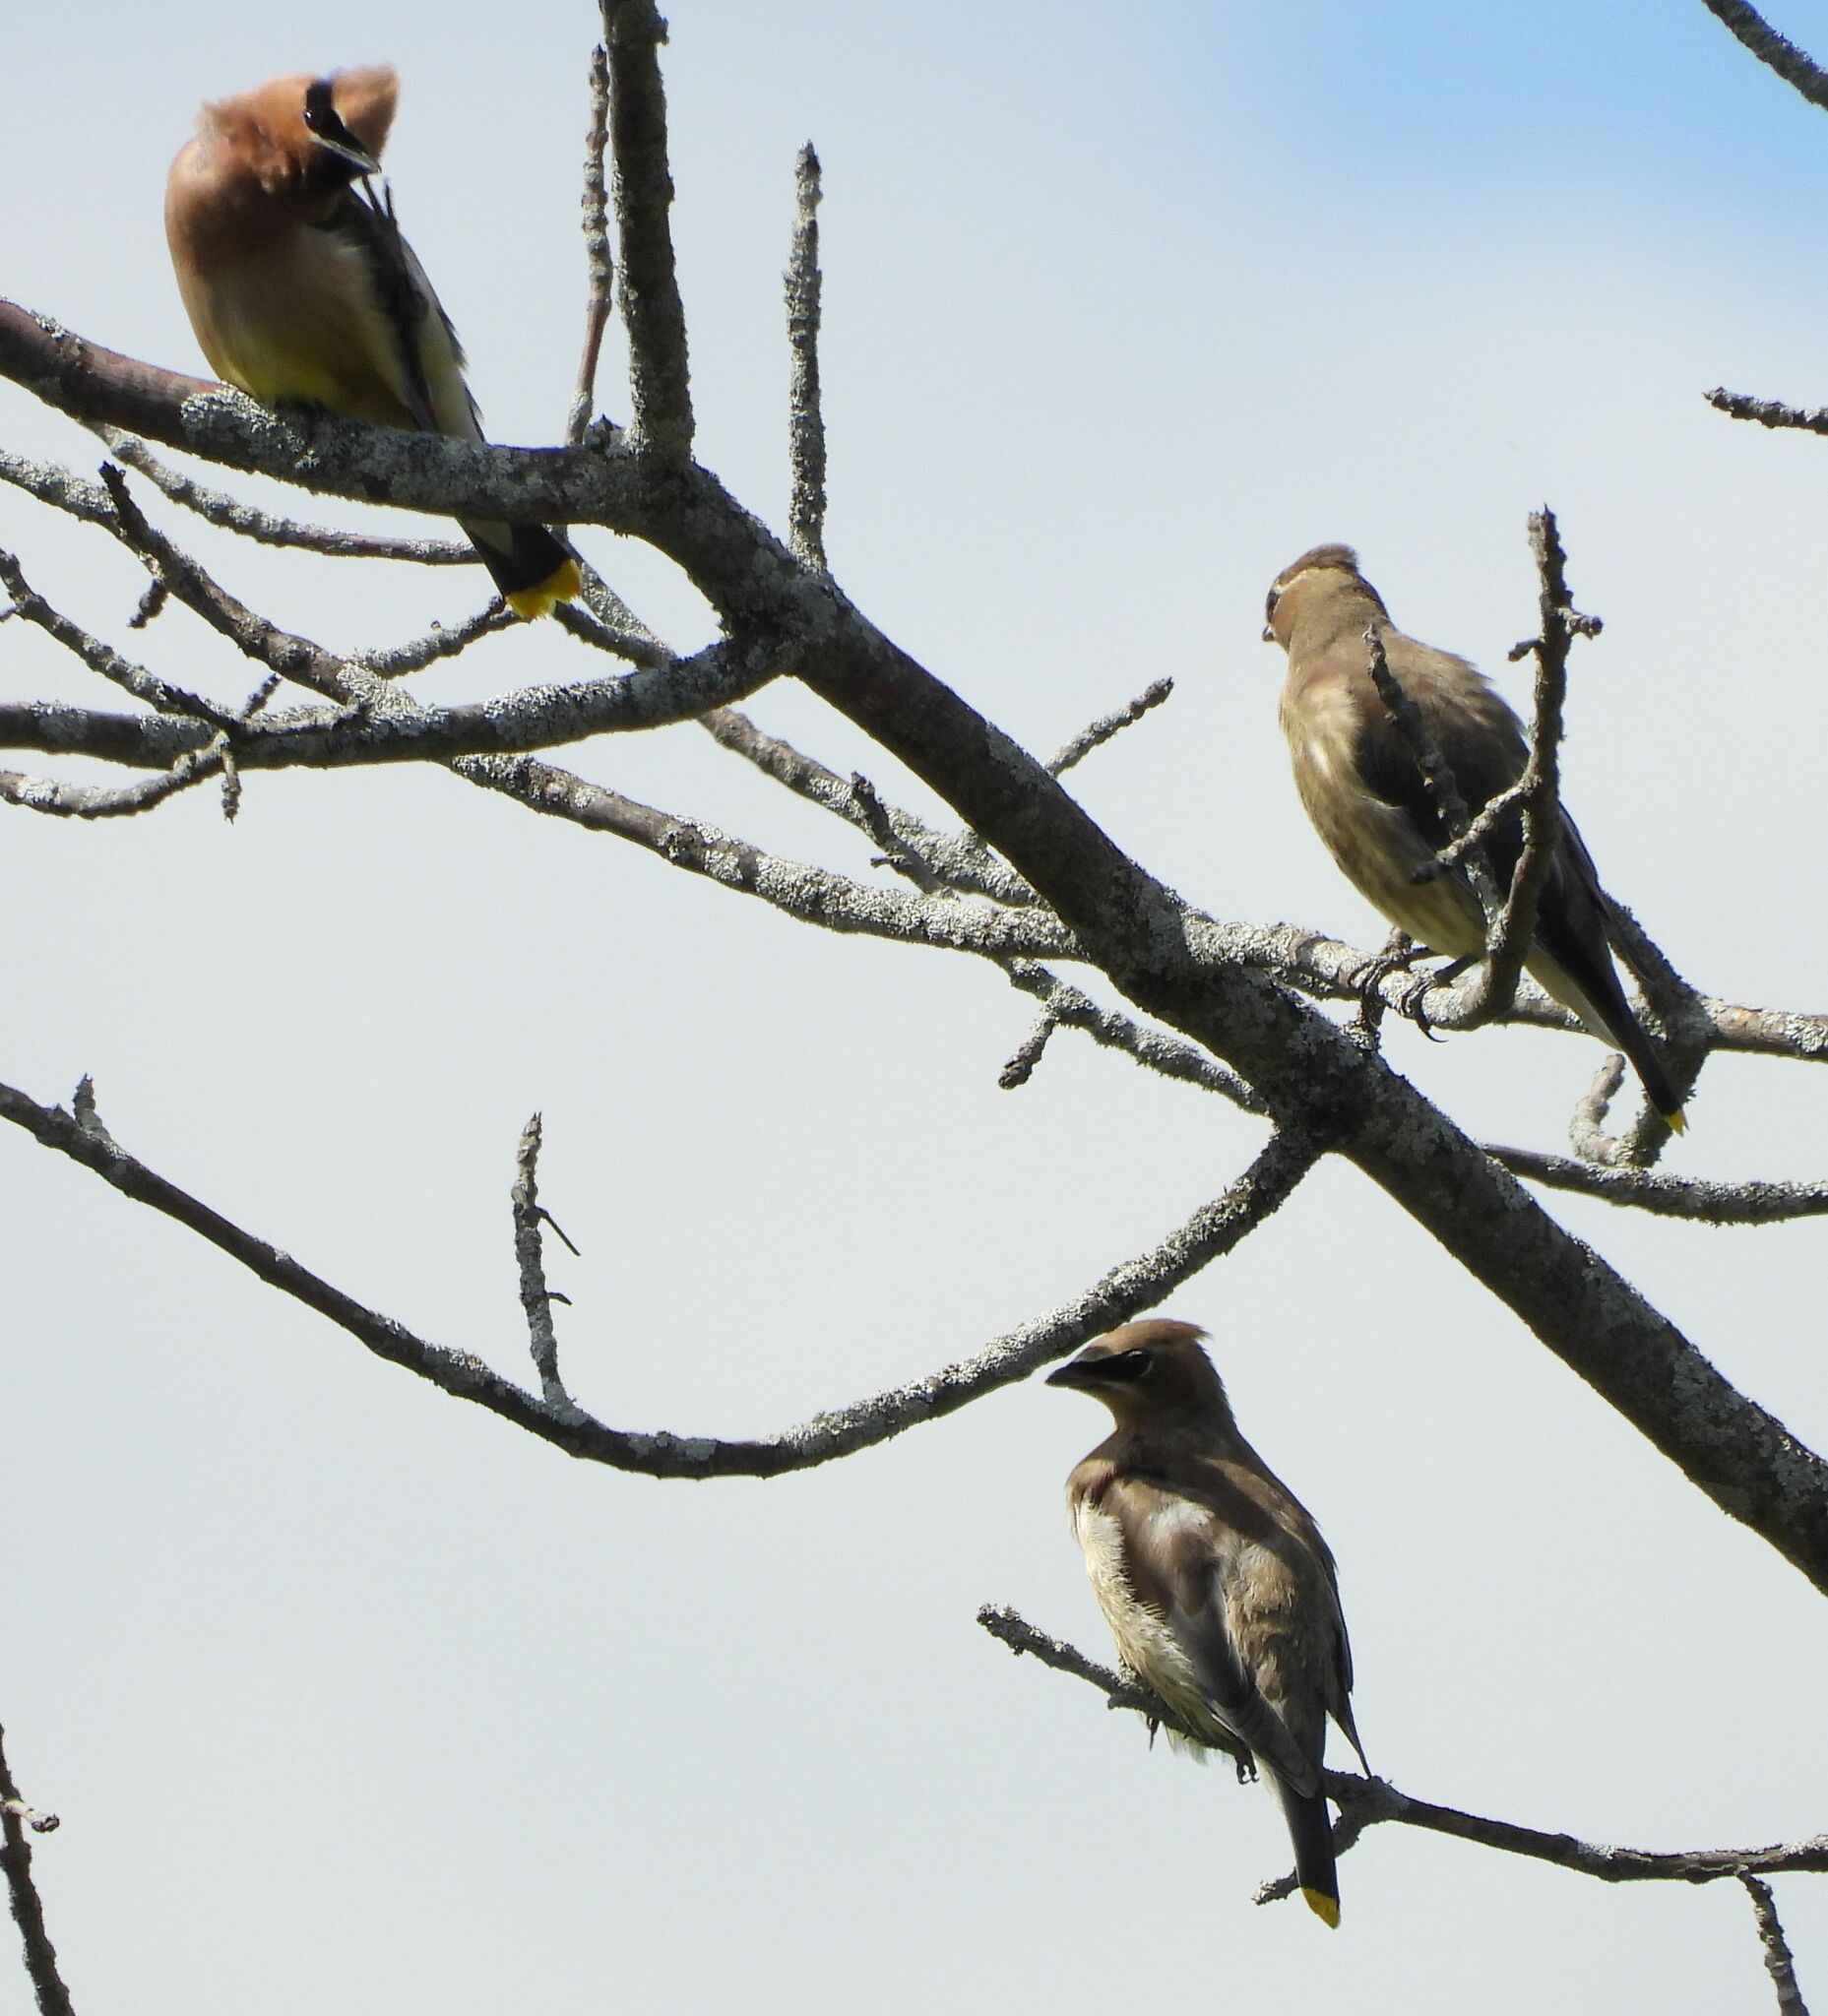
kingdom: Animalia
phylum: Chordata
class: Aves
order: Passeriformes
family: Bombycillidae
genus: Bombycilla
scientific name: Bombycilla cedrorum
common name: Cedar waxwing
